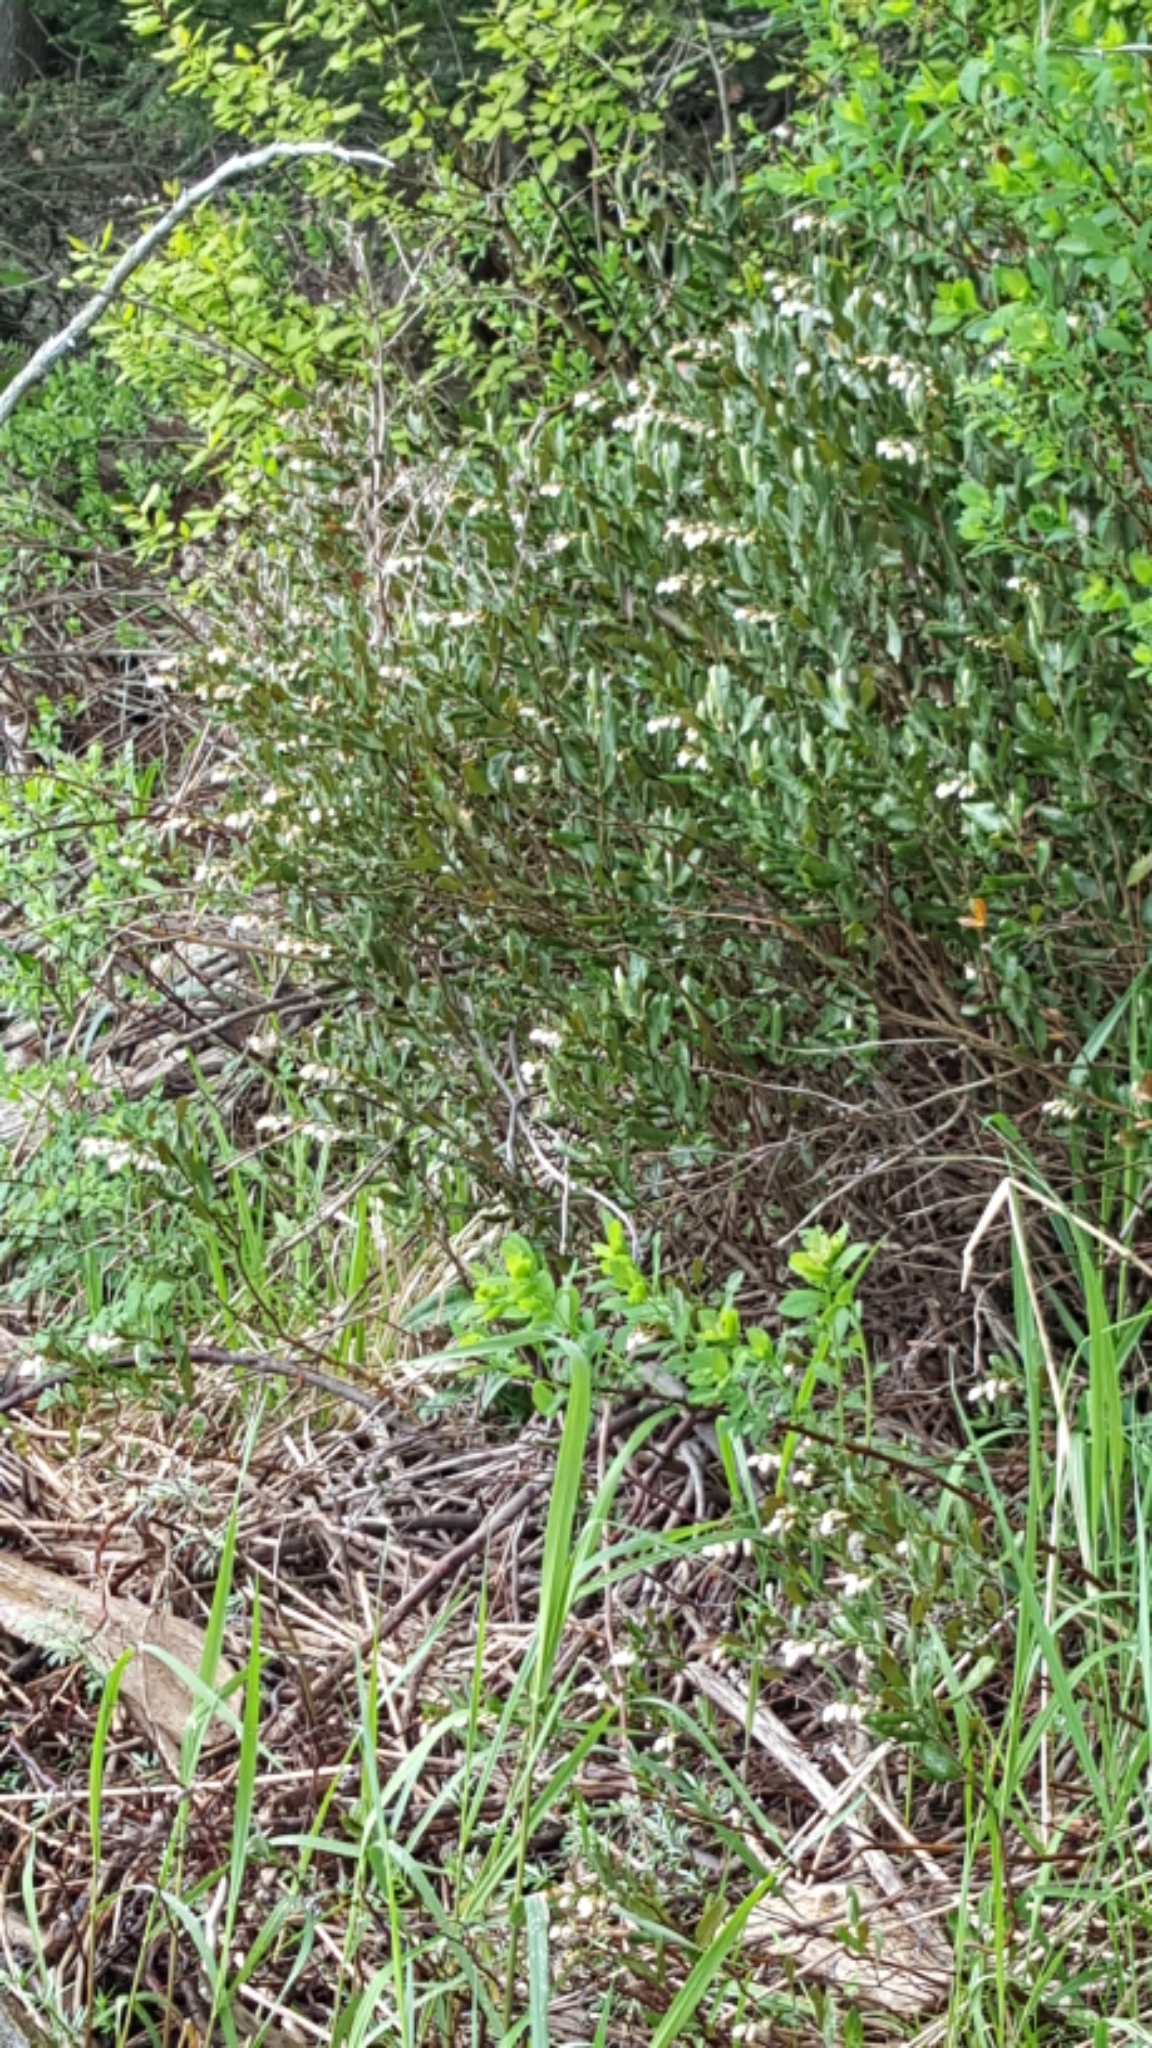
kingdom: Plantae
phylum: Tracheophyta
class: Magnoliopsida
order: Ericales
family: Ericaceae
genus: Chamaedaphne
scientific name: Chamaedaphne calyculata
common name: Leatherleaf
